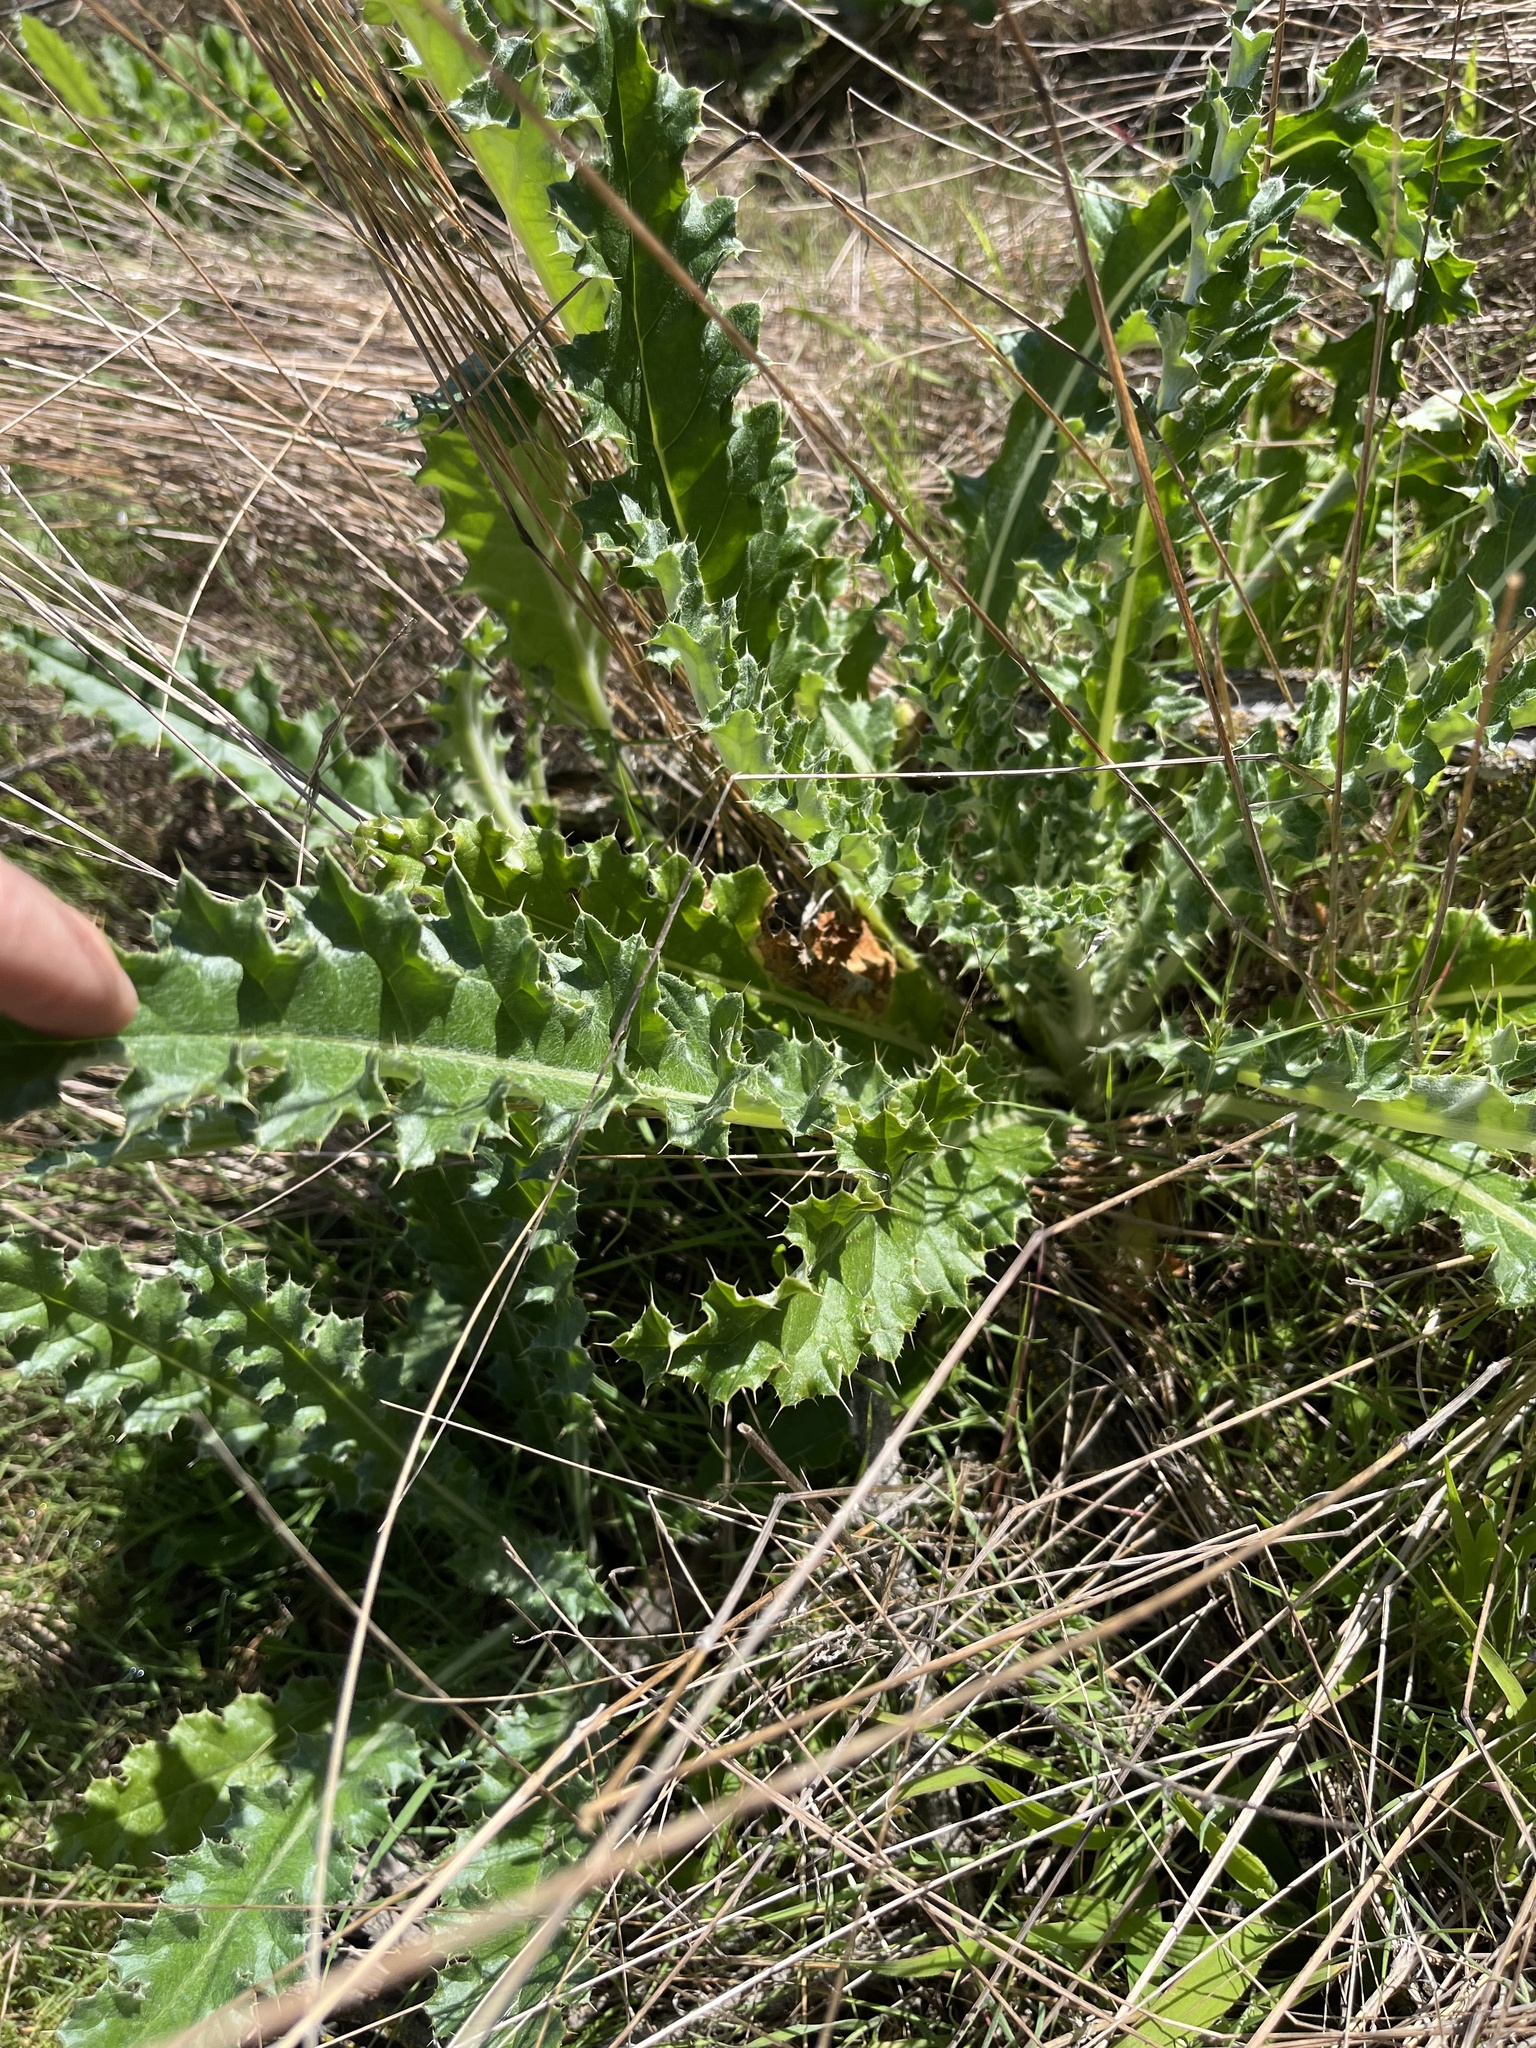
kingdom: Plantae
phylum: Tracheophyta
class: Magnoliopsida
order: Asterales
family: Asteraceae
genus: Cirsium
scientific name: Cirsium occidentale
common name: Western thistle
